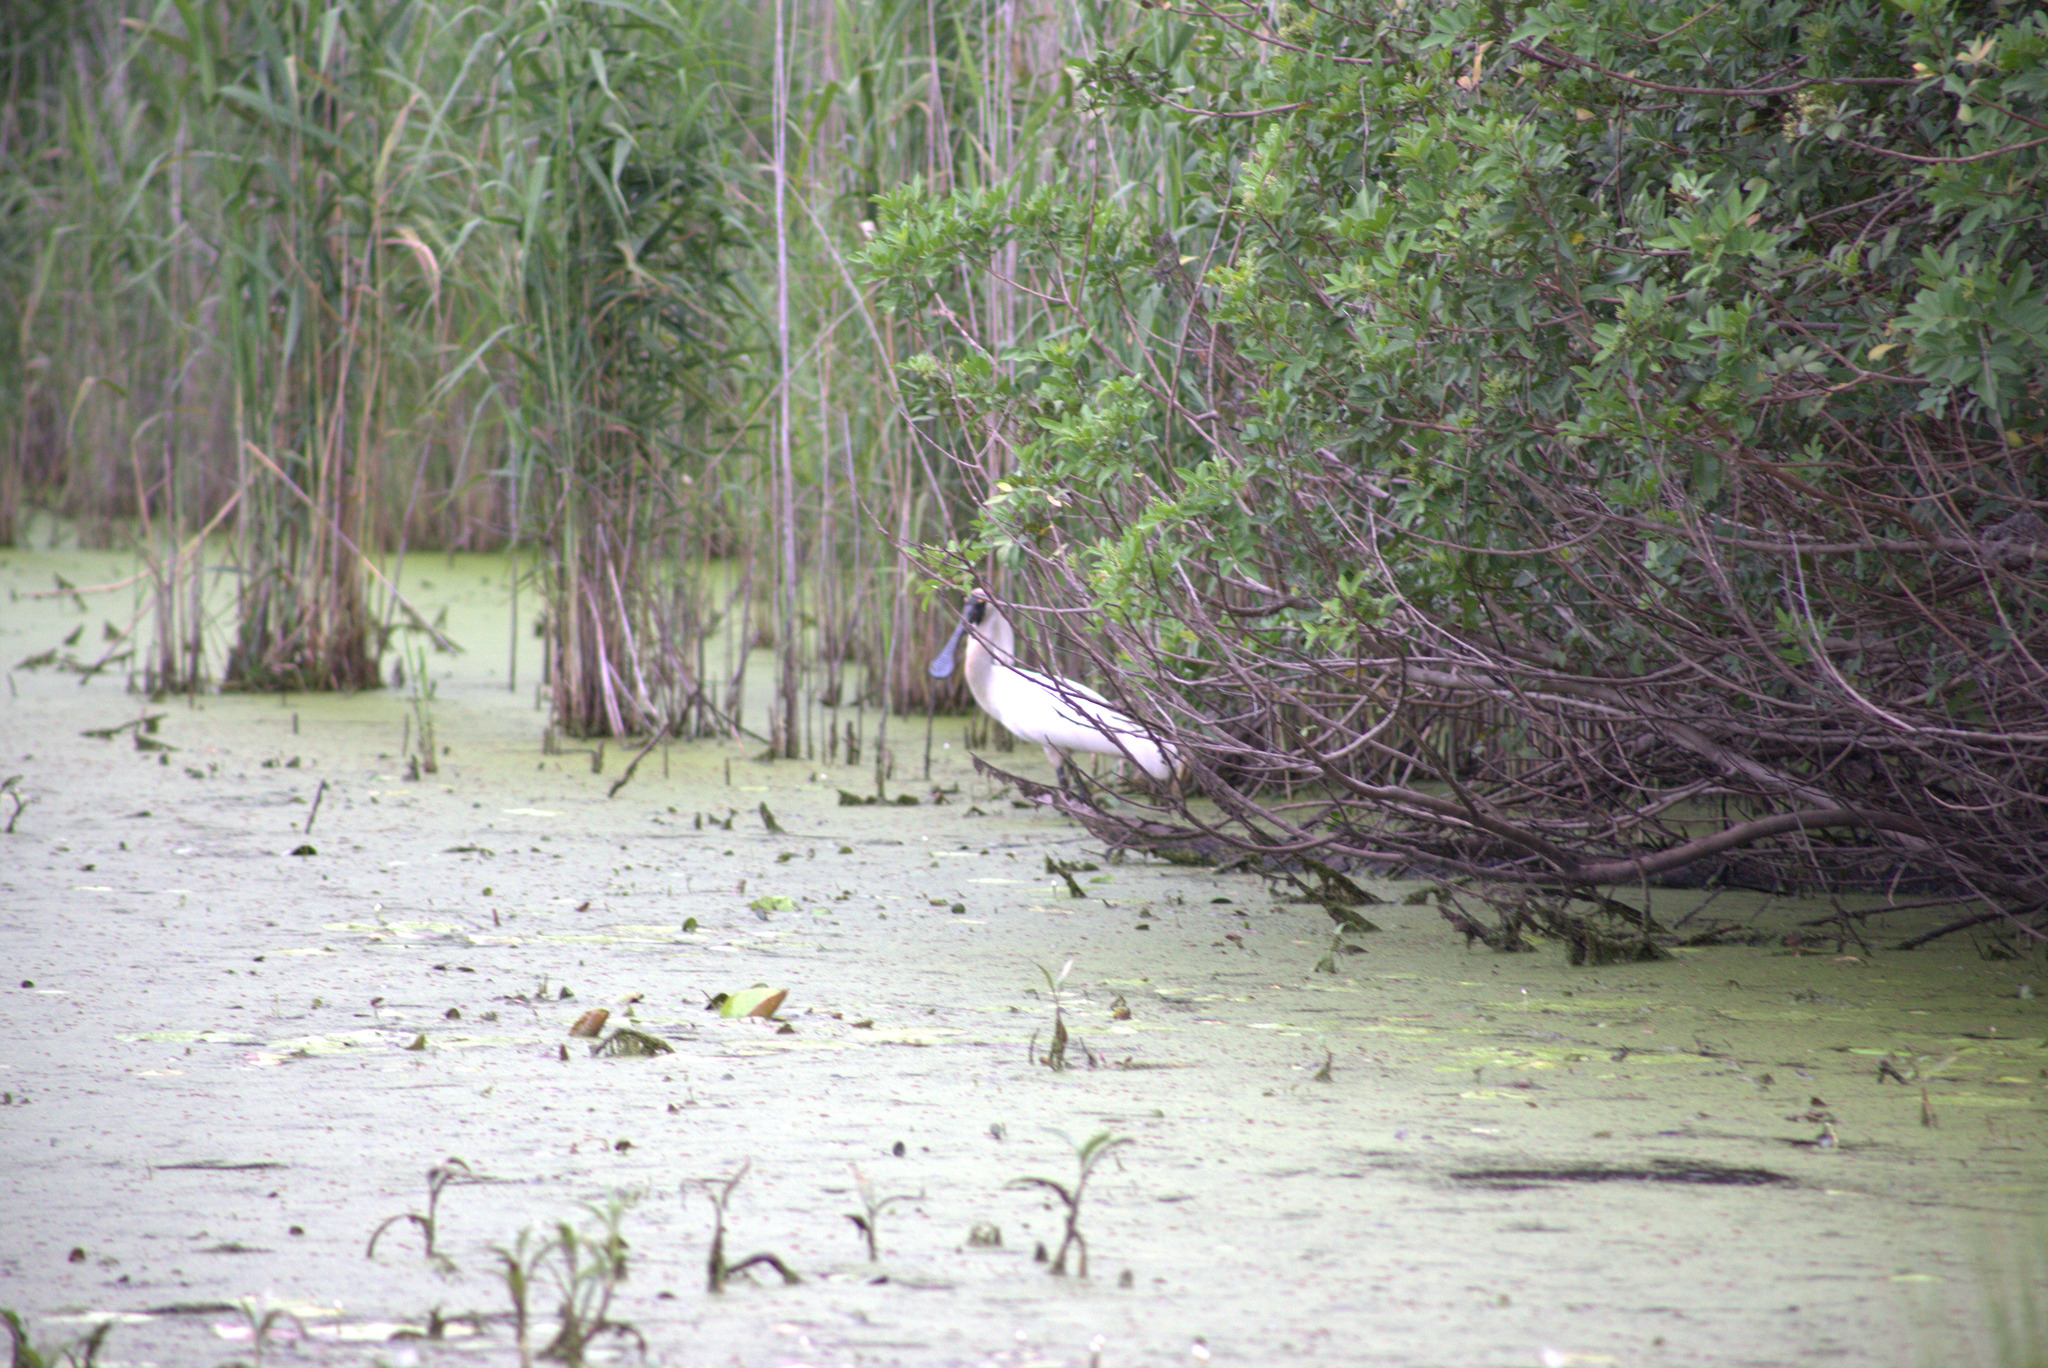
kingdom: Animalia
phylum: Chordata
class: Aves
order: Pelecaniformes
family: Threskiornithidae
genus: Platalea
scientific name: Platalea regia
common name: Royal spoonbill
